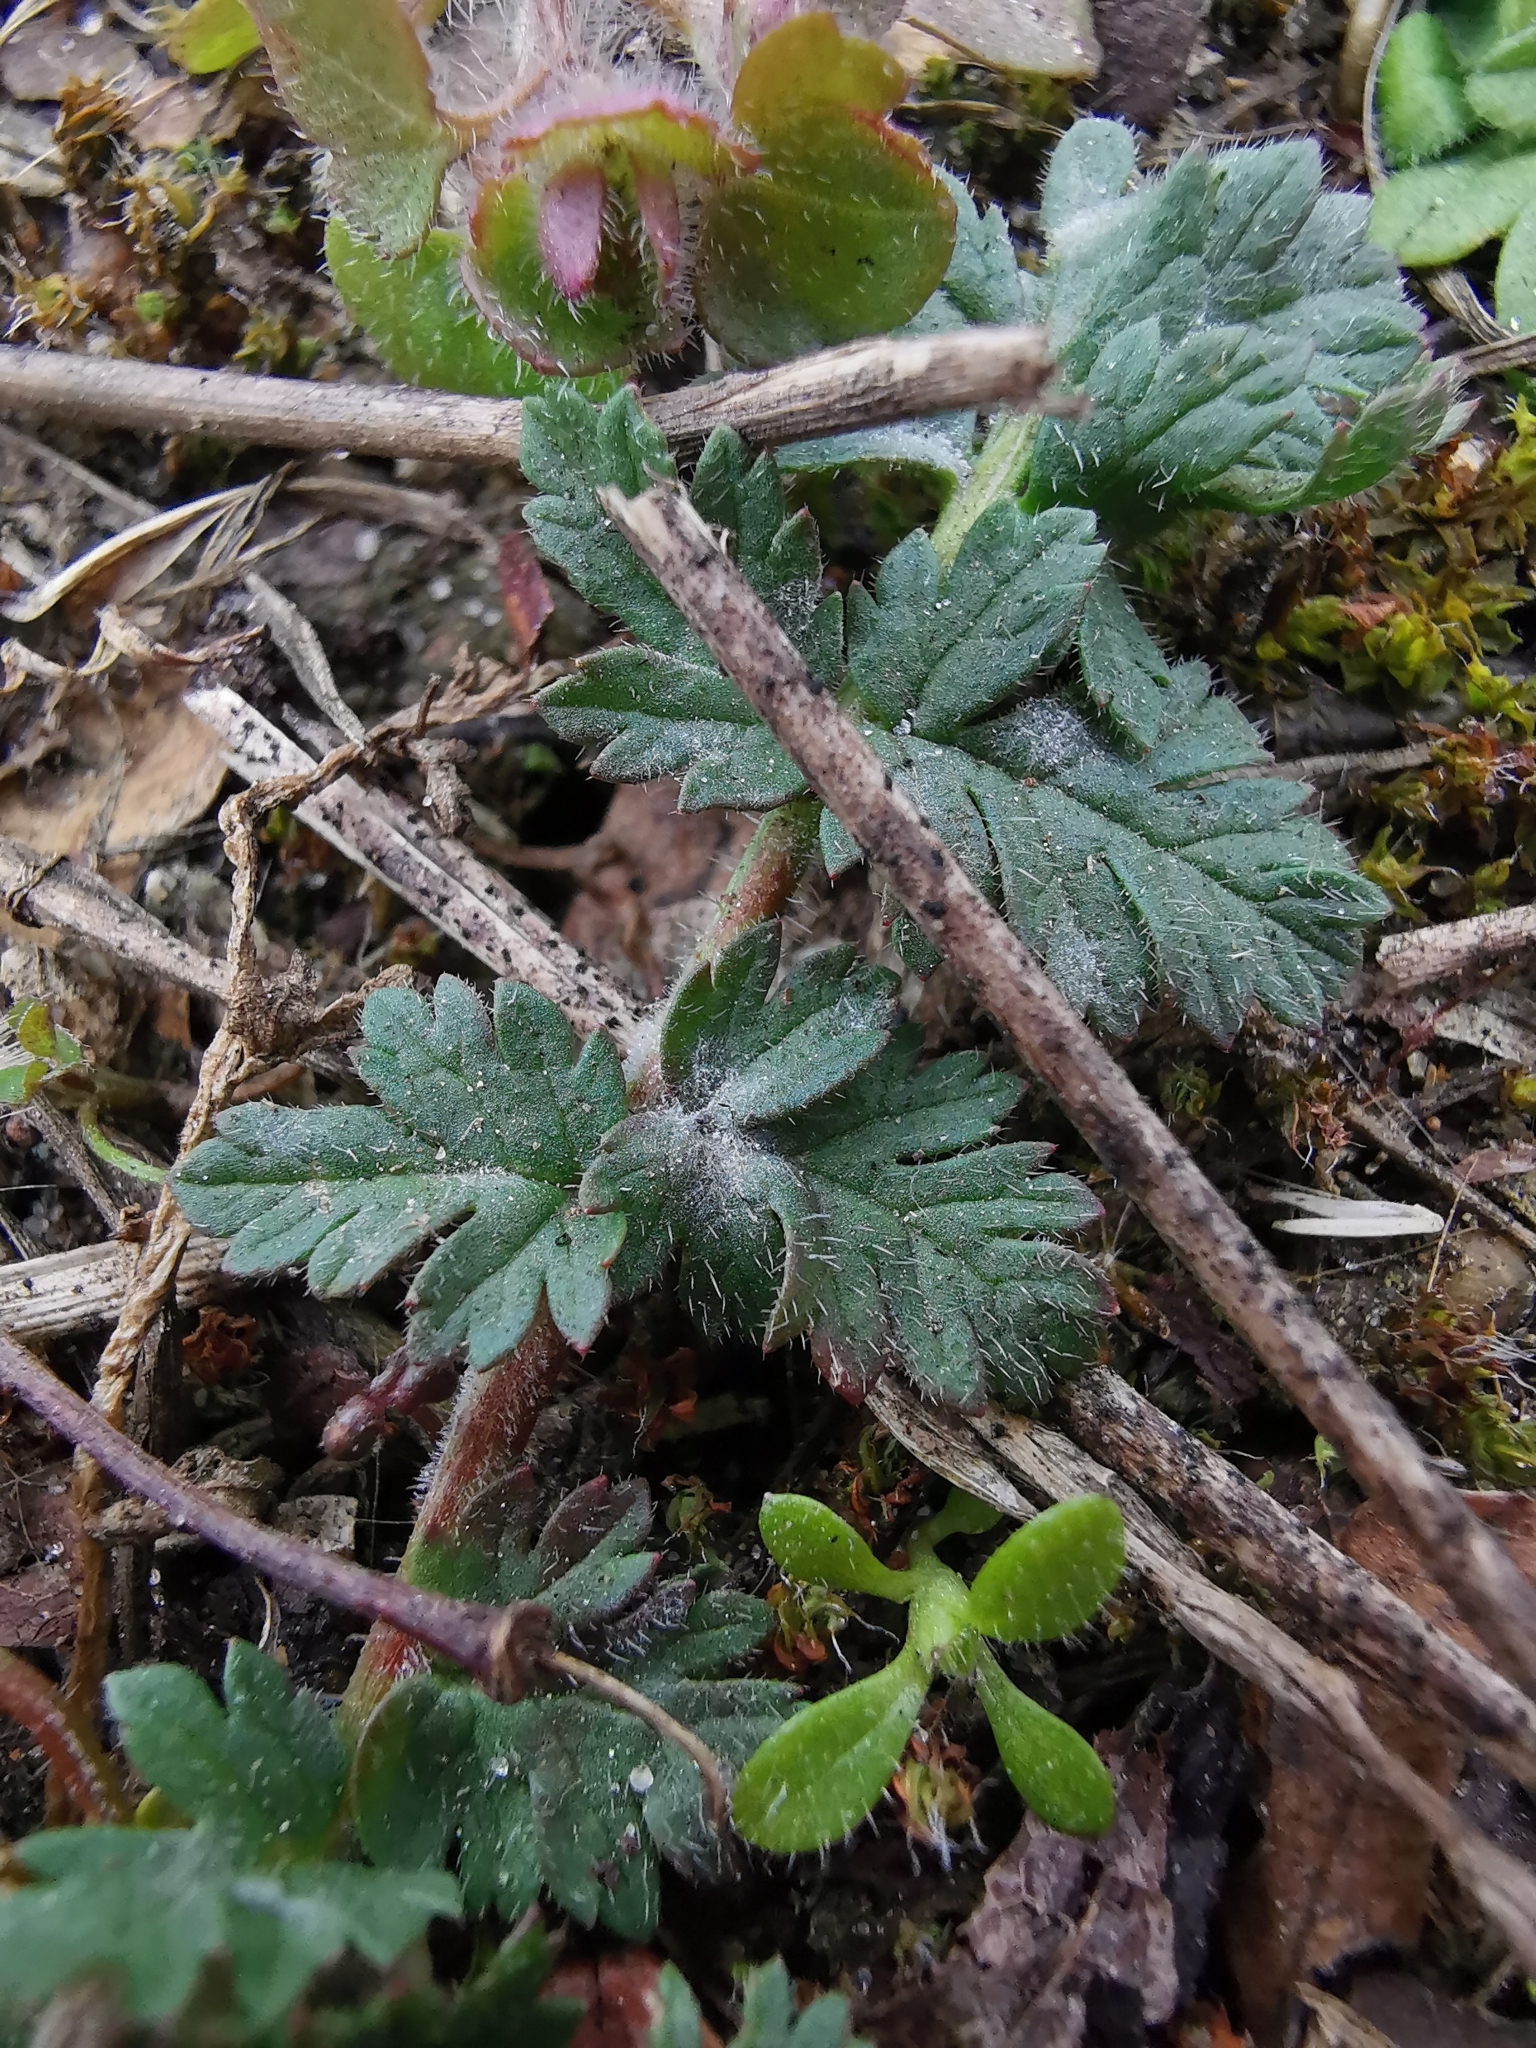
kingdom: Plantae
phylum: Tracheophyta
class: Magnoliopsida
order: Geraniales
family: Geraniaceae
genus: Erodium
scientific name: Erodium cicutarium
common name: Common stork's-bill
